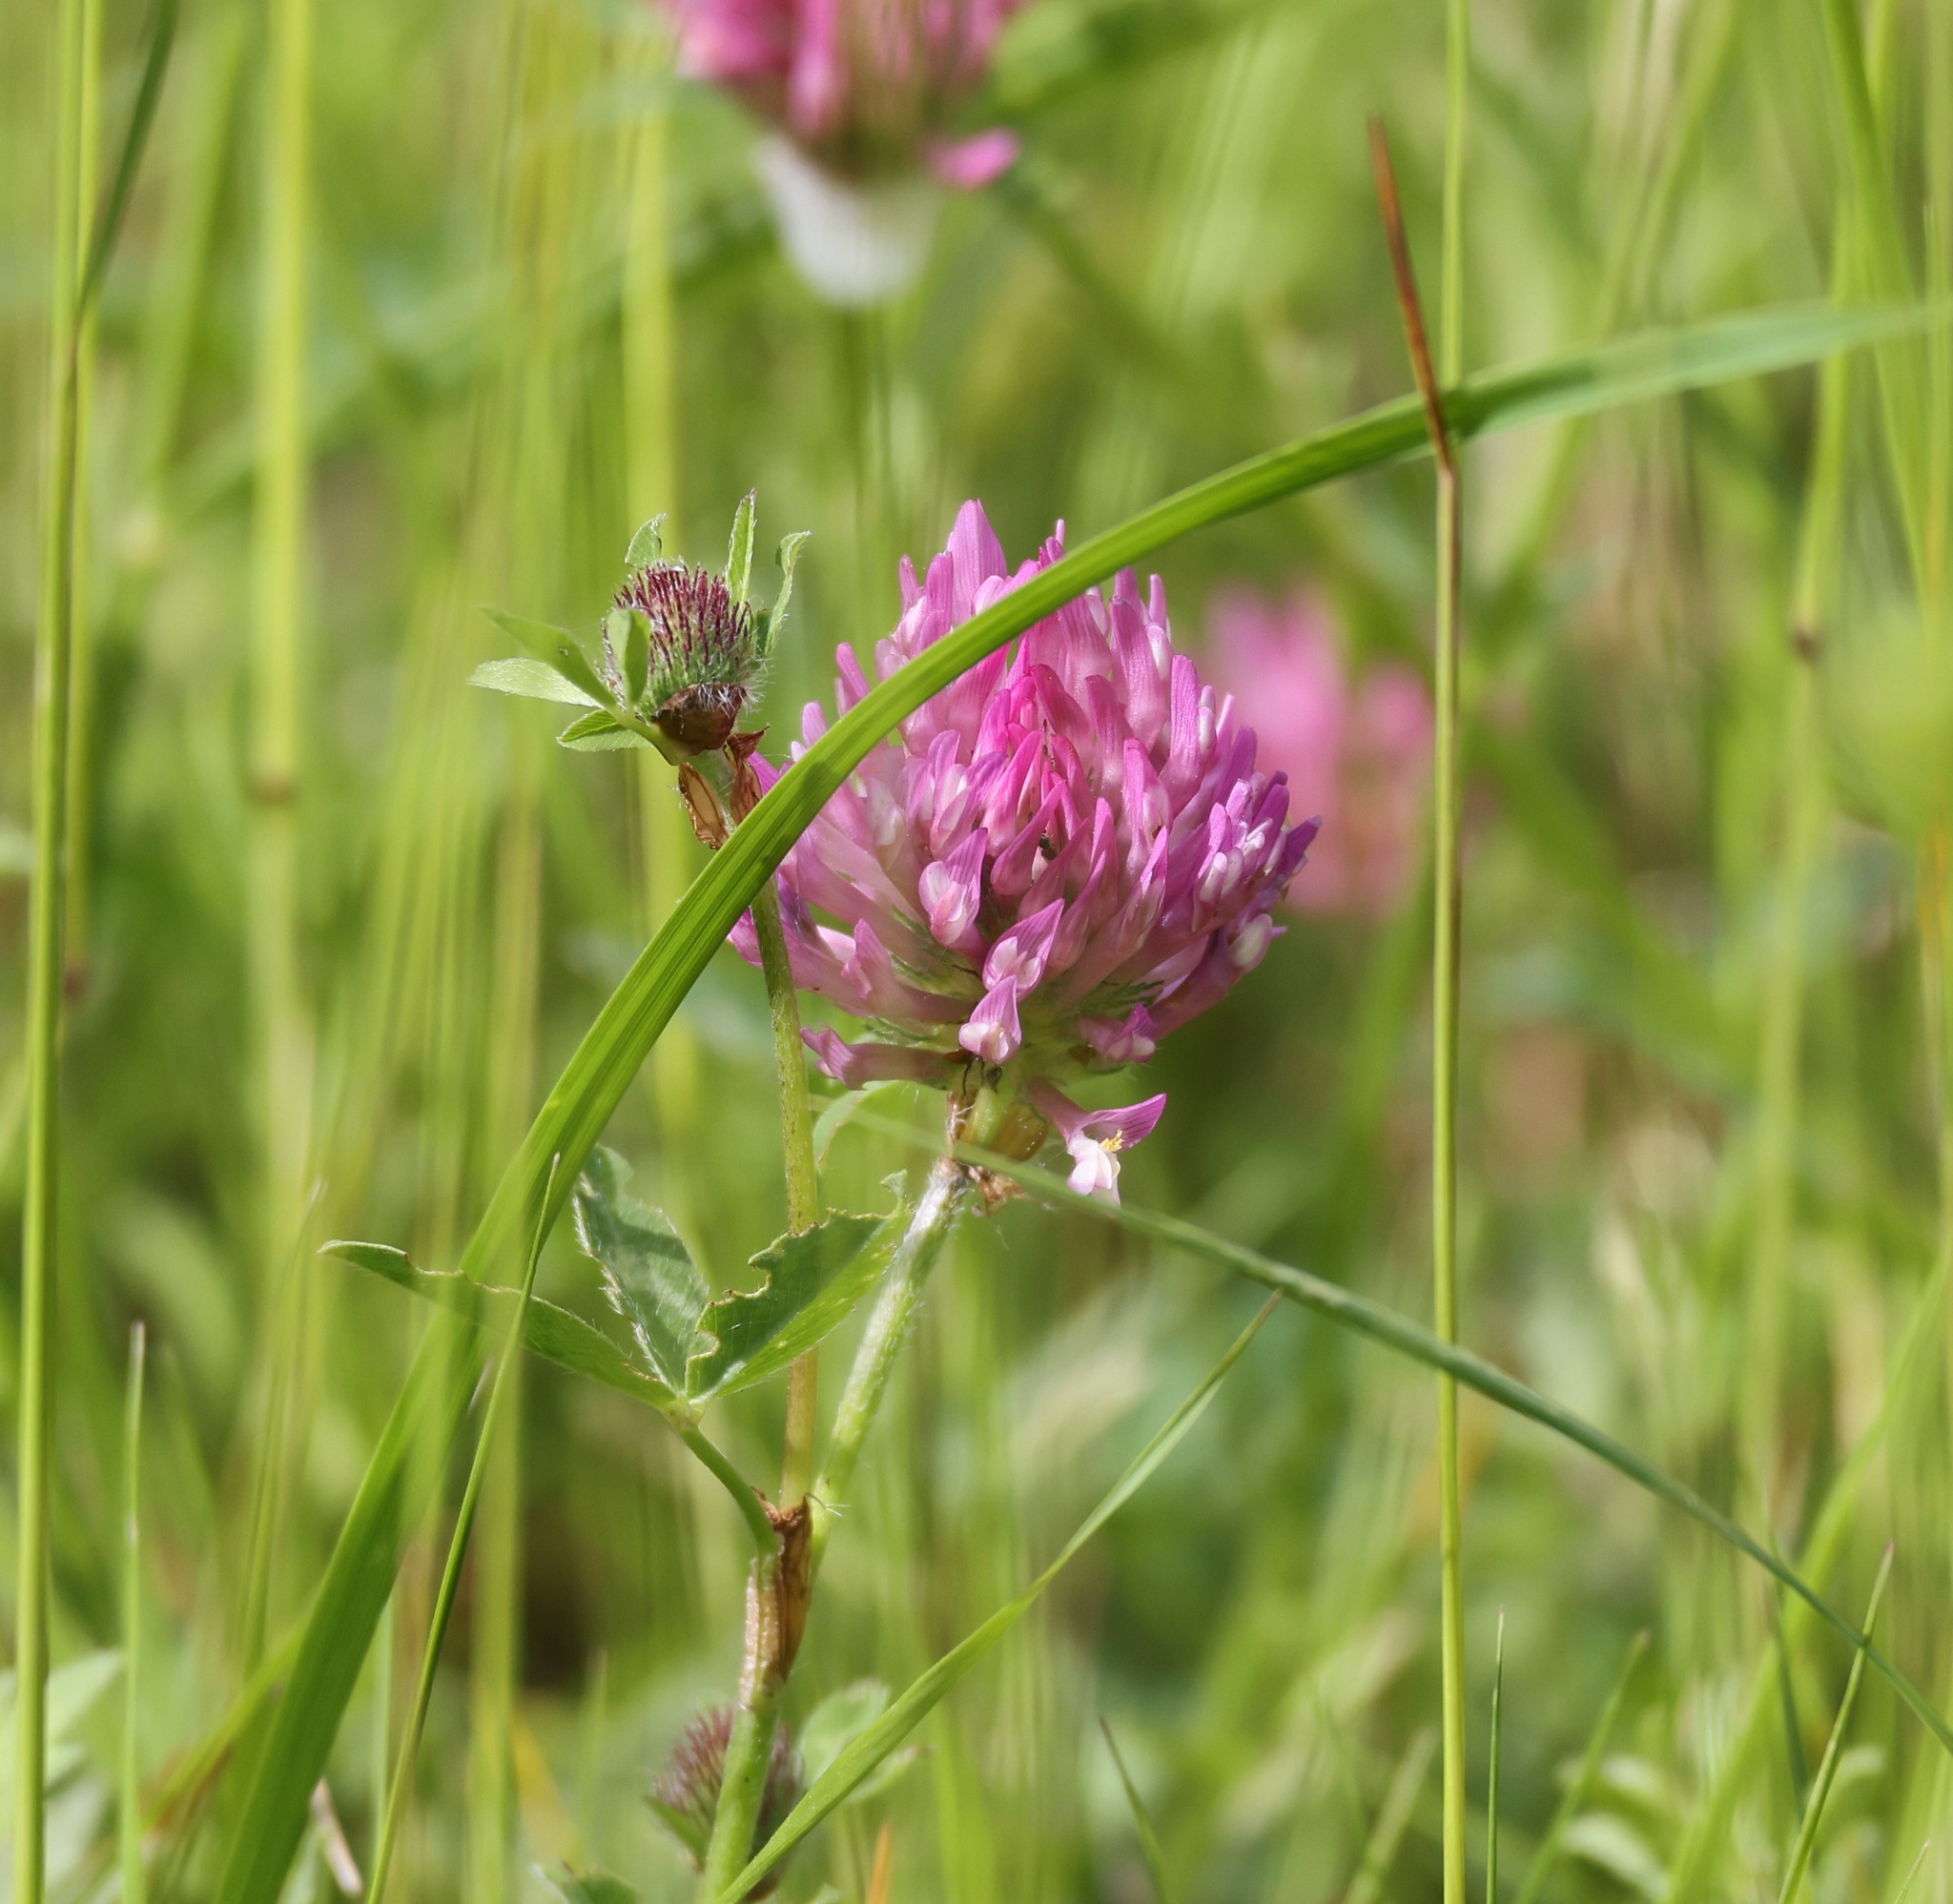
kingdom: Plantae
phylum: Tracheophyta
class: Magnoliopsida
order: Fabales
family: Fabaceae
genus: Trifolium
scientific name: Trifolium pratense
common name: Red clover
